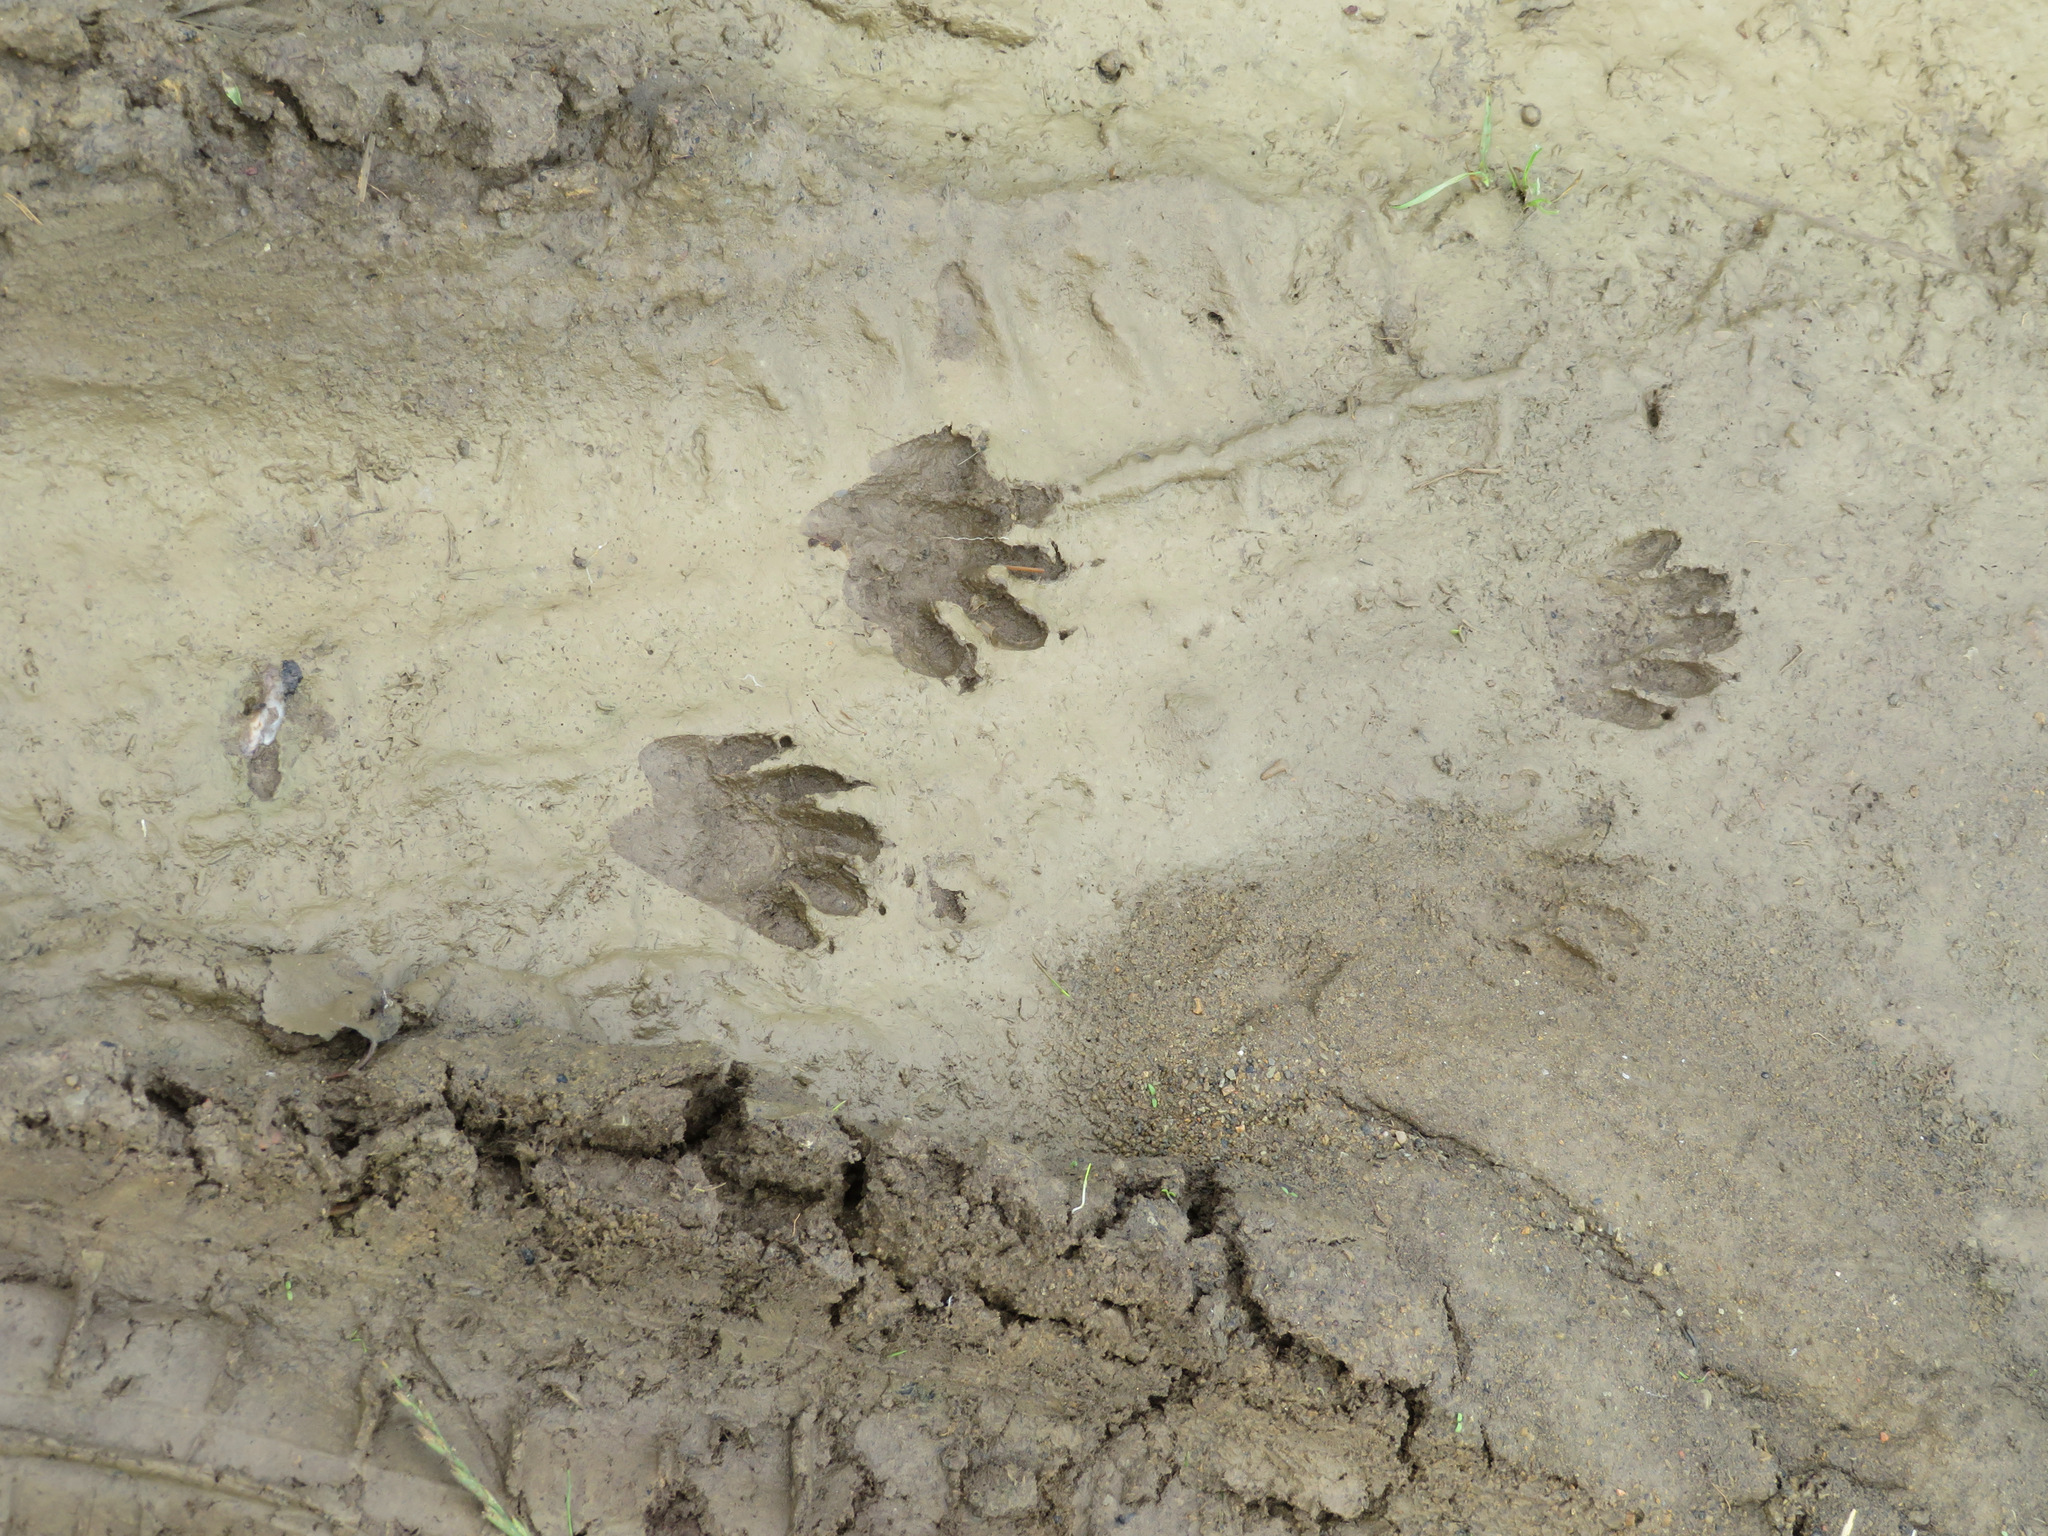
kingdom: Animalia
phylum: Chordata
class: Mammalia
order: Carnivora
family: Procyonidae
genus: Procyon
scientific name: Procyon lotor
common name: Raccoon
